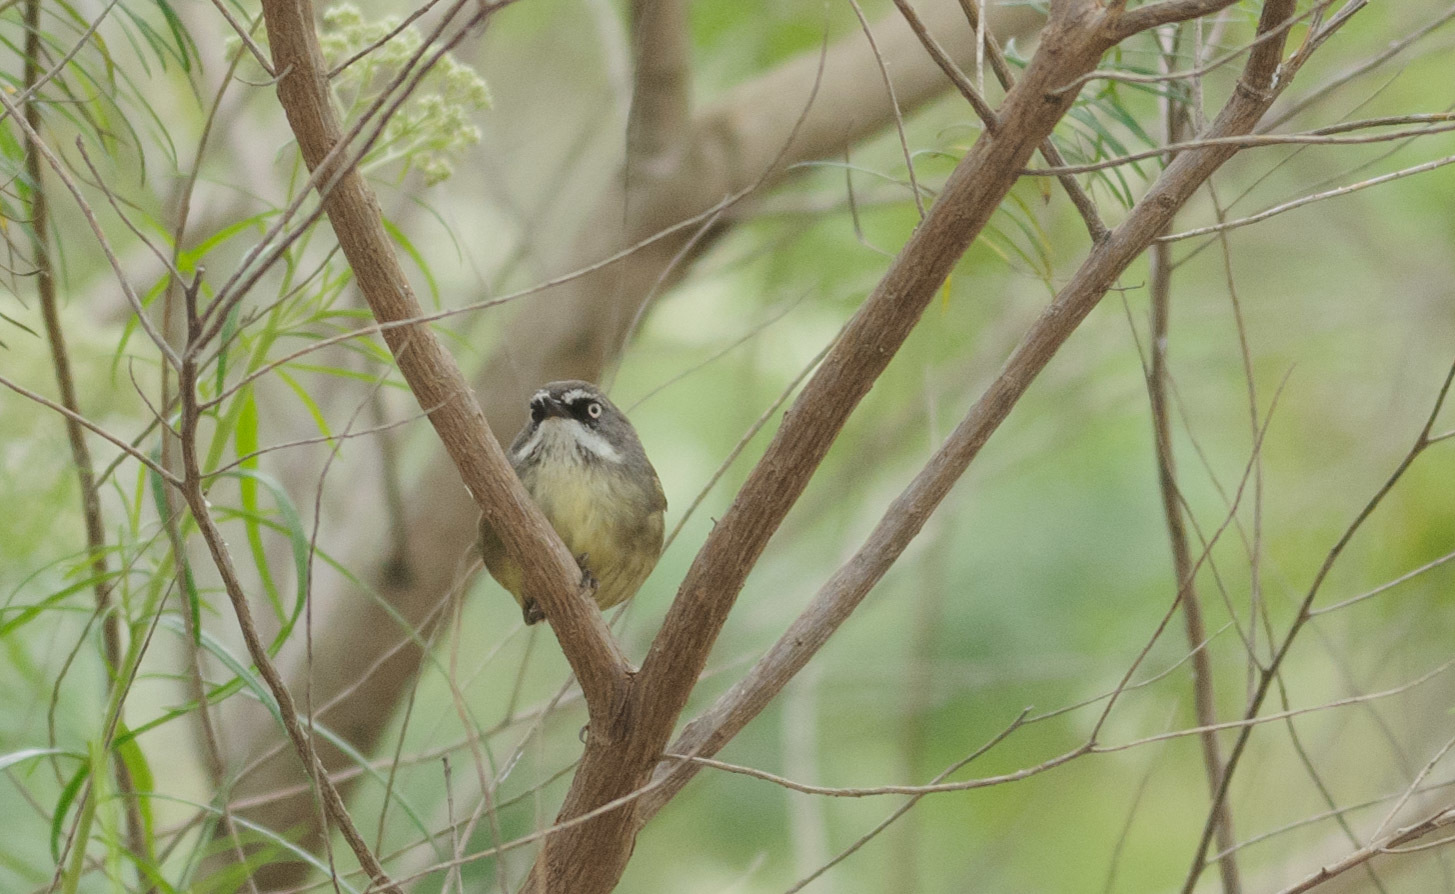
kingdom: Animalia
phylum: Chordata
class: Aves
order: Passeriformes
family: Acanthizidae
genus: Sericornis
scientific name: Sericornis frontalis
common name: White-browed scrubwren
